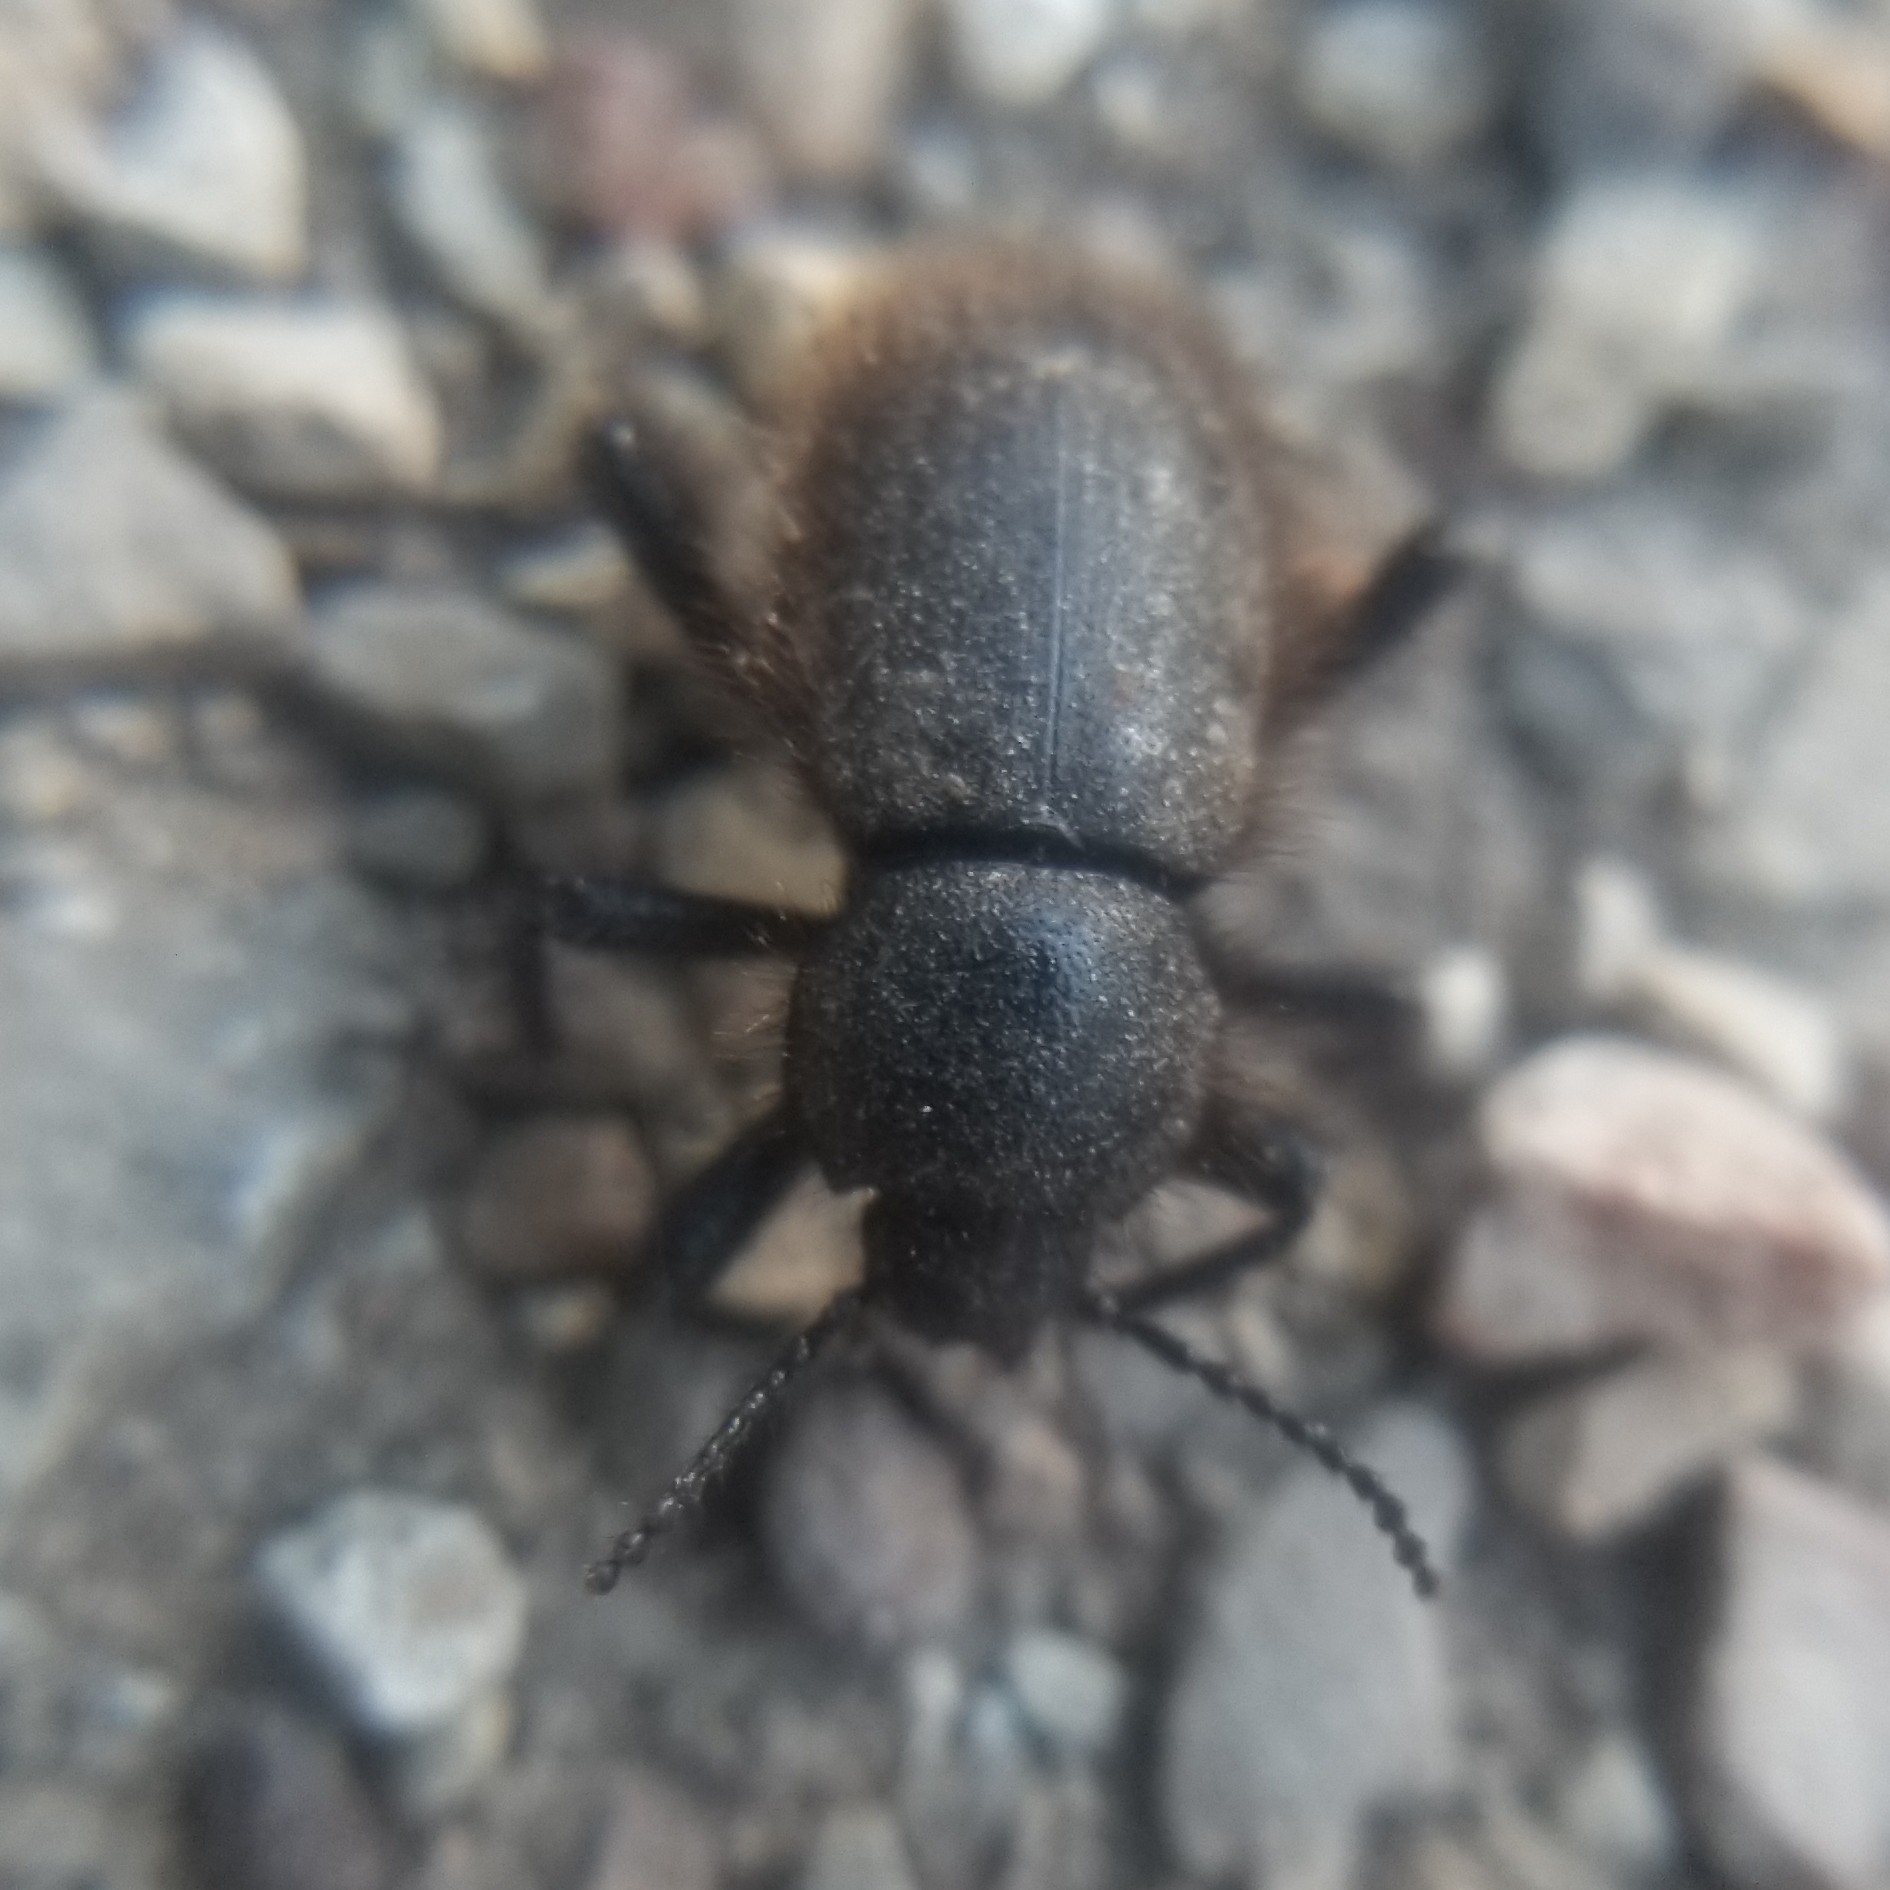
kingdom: Animalia
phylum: Arthropoda
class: Insecta
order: Coleoptera
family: Tenebrionidae
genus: Eleodes
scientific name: Eleodes osculans
